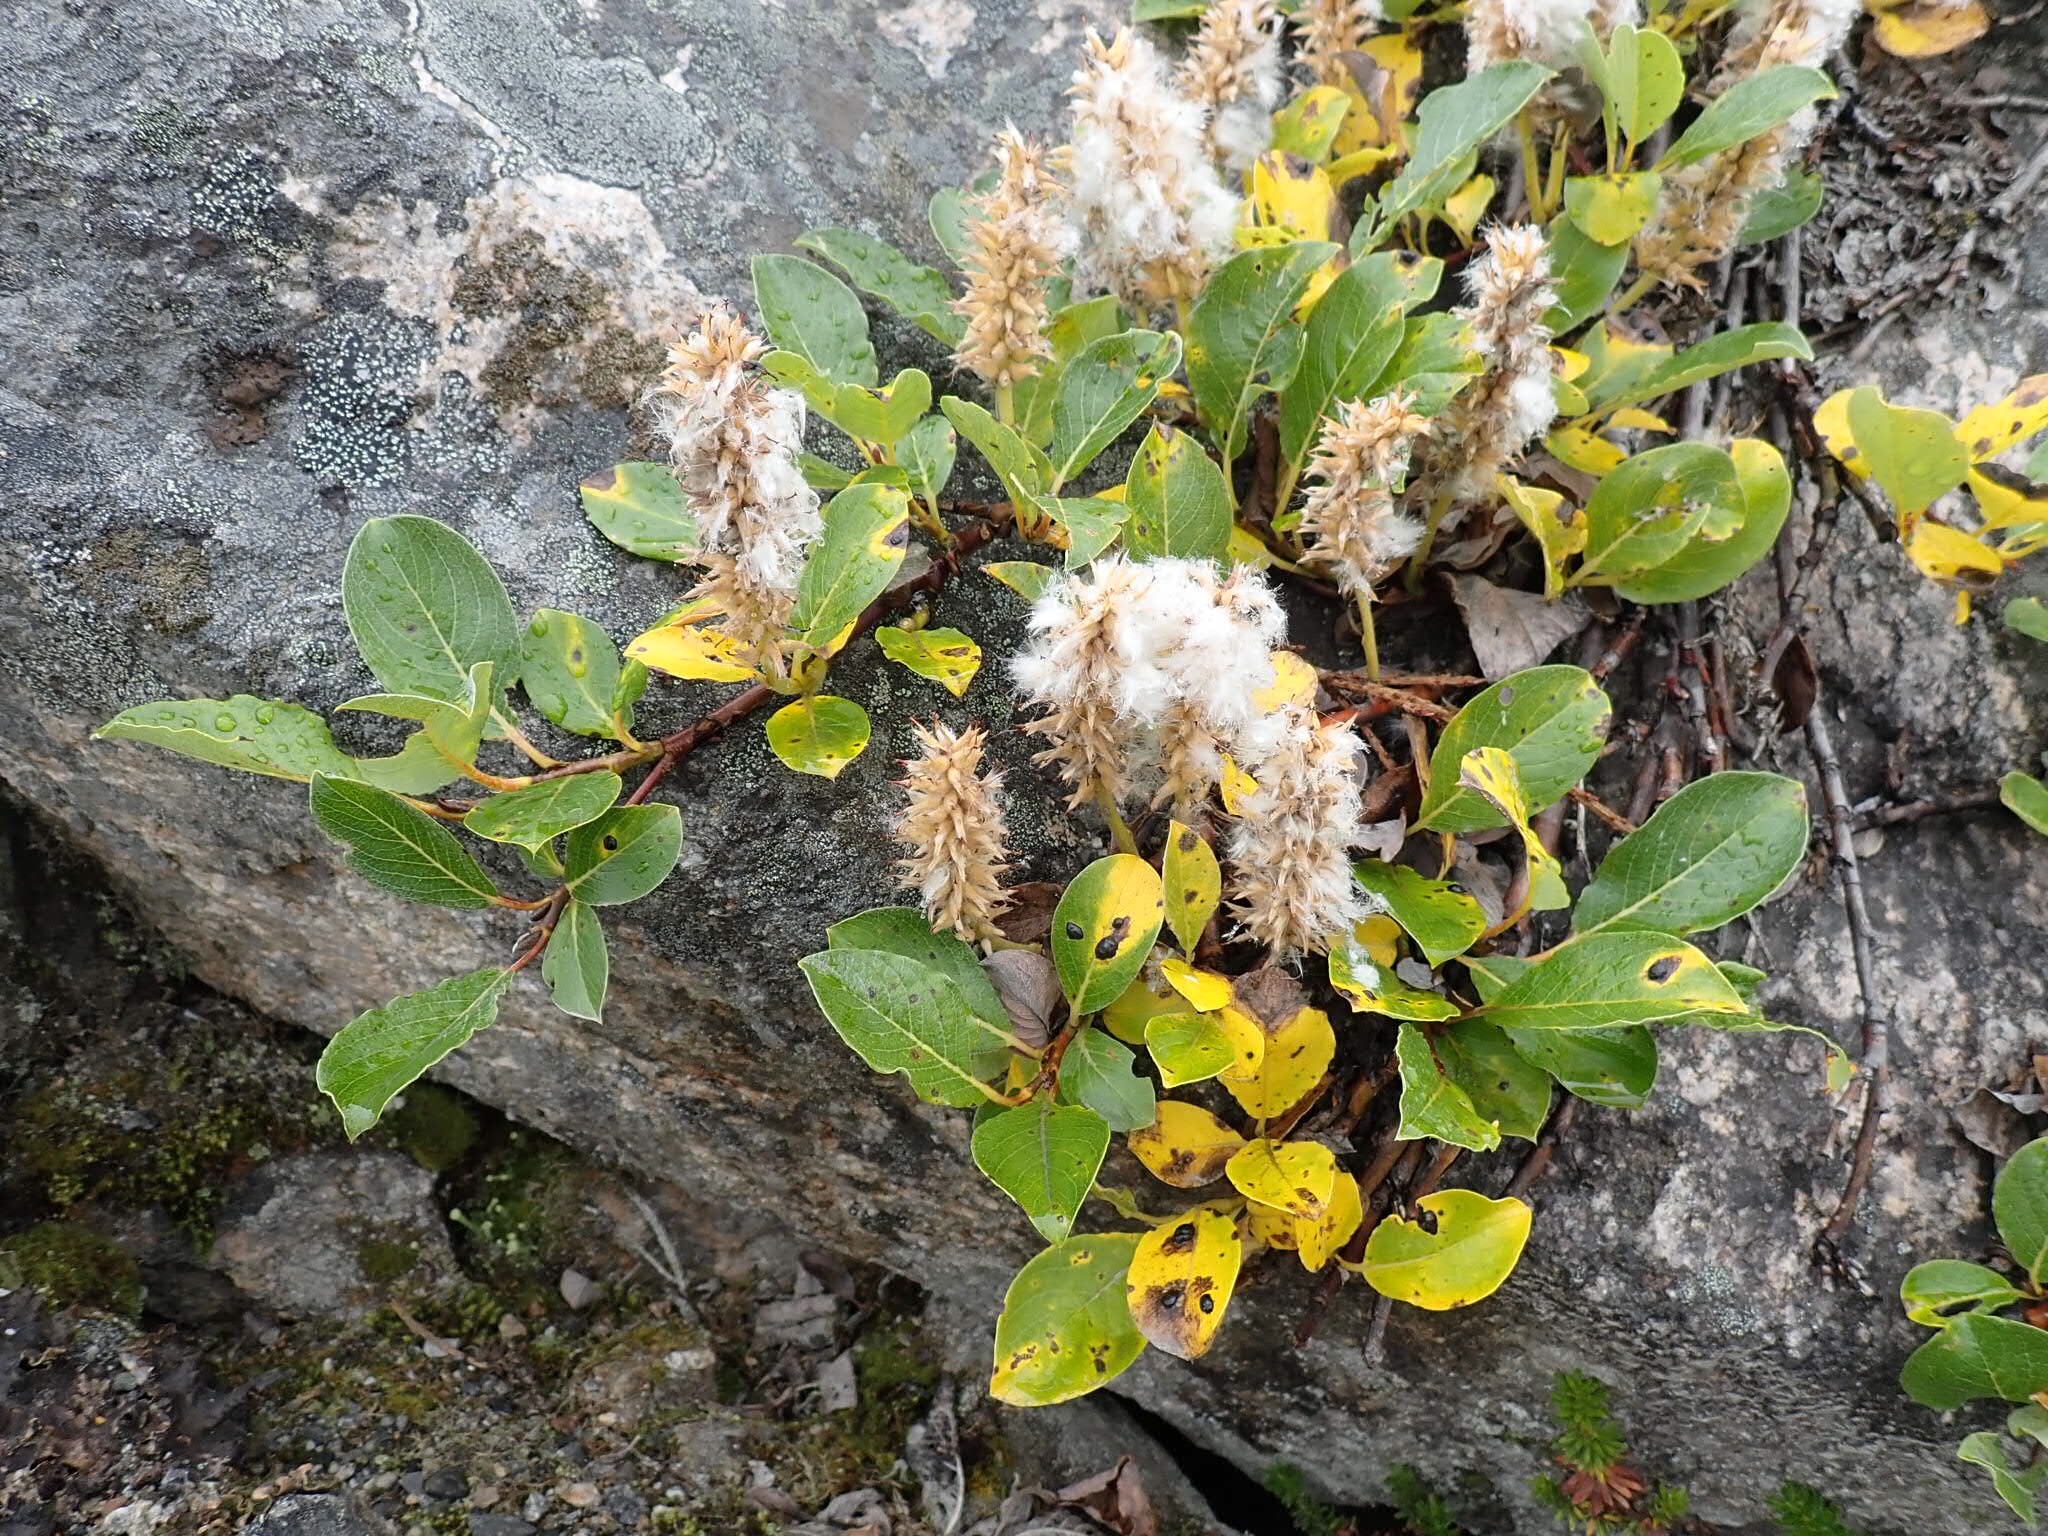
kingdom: Plantae
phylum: Tracheophyta
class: Magnoliopsida
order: Malpighiales
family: Salicaceae
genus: Salix
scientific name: Salix arctica
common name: Arctic willow
